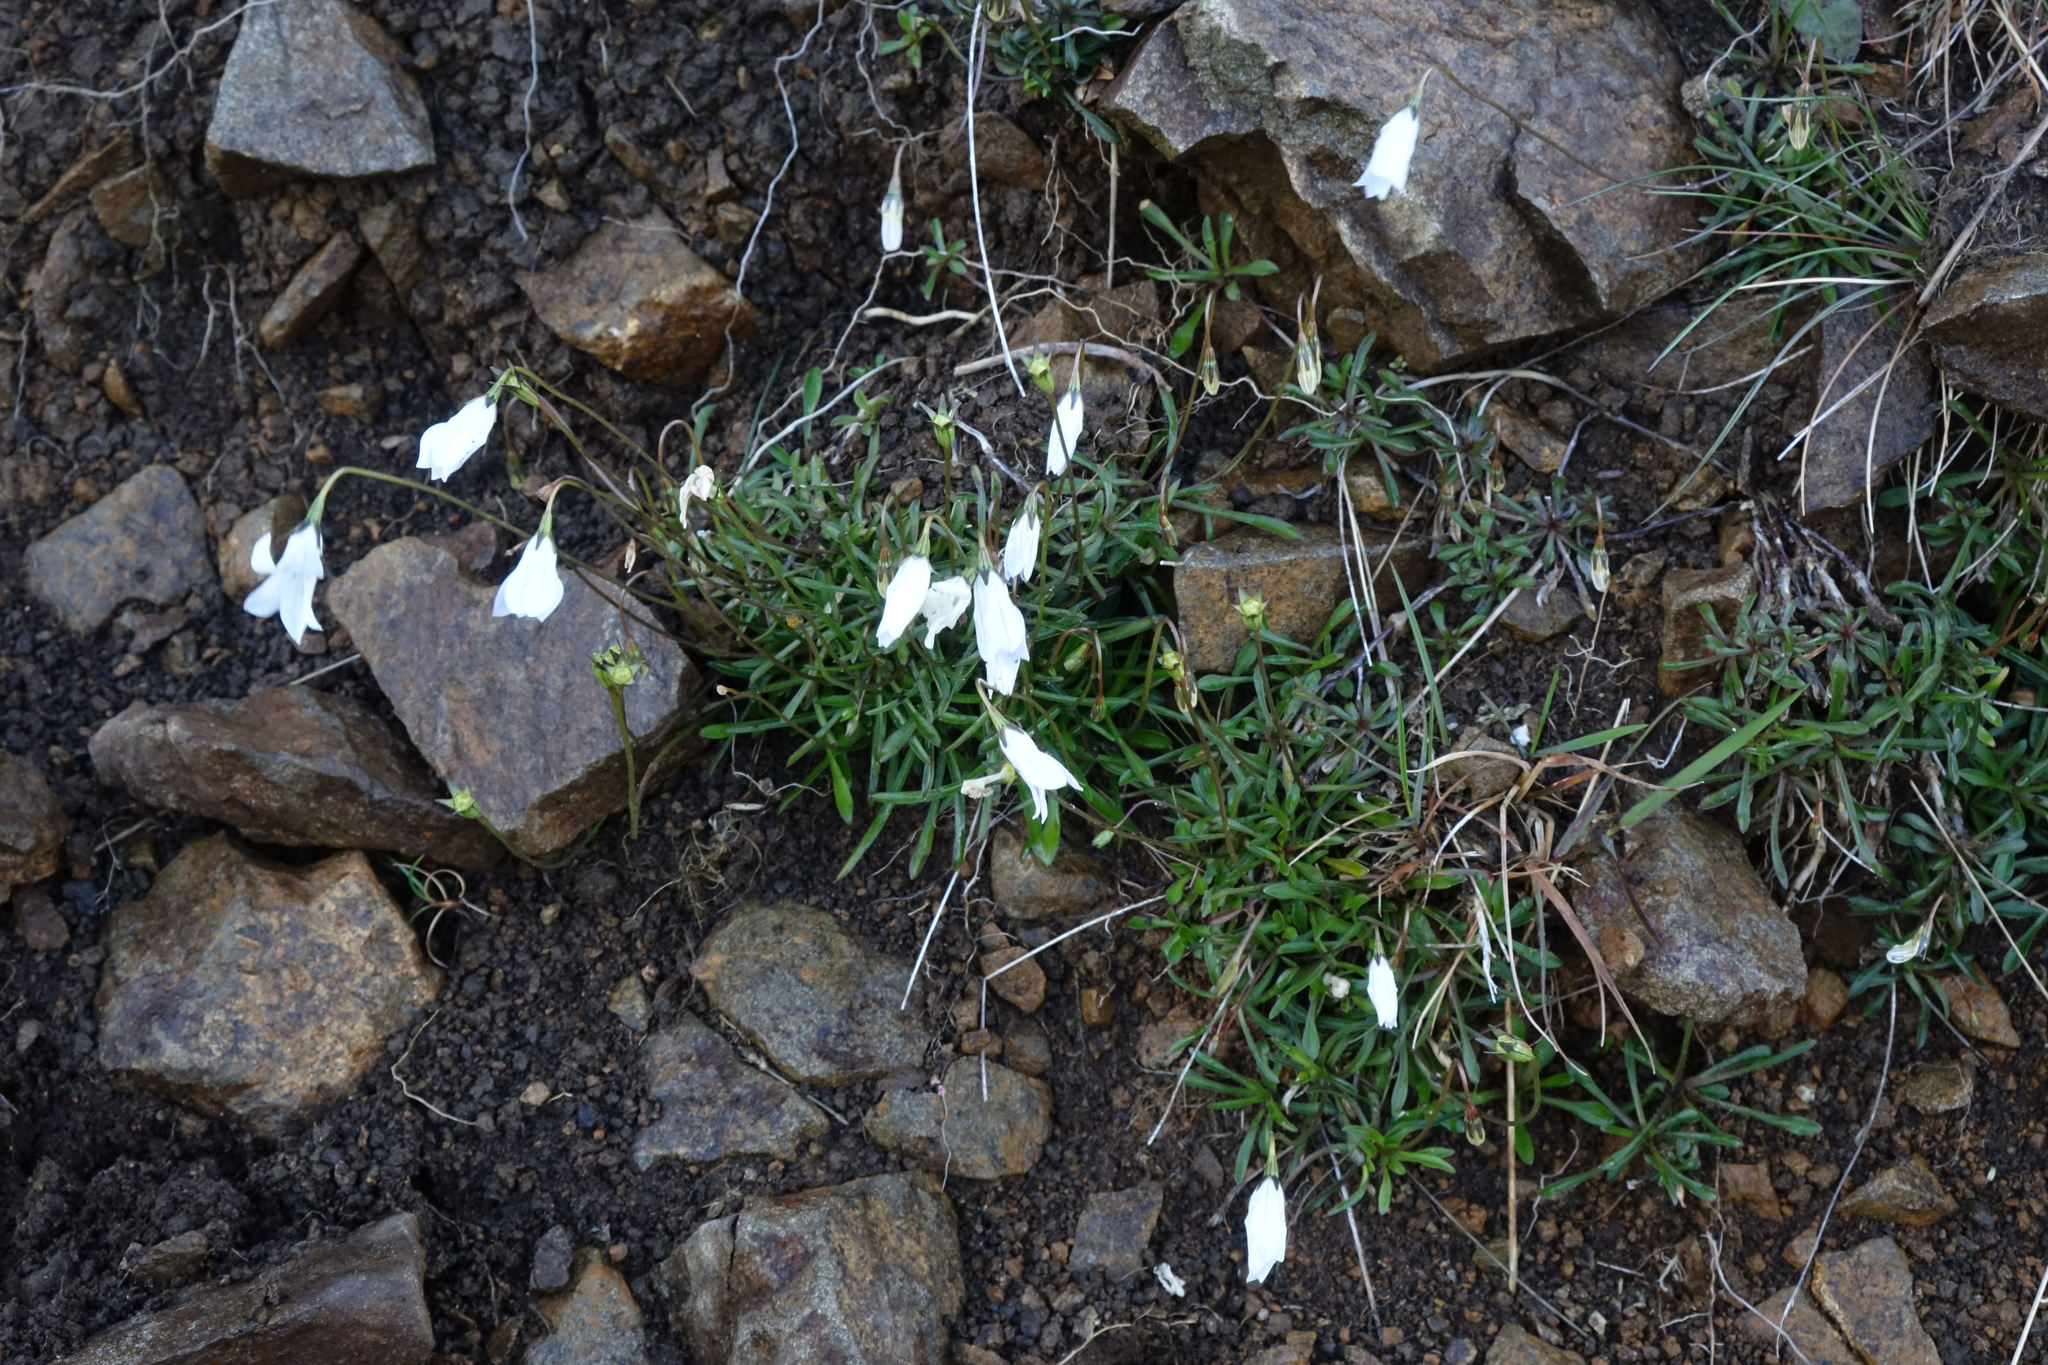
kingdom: Plantae
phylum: Tracheophyta
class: Magnoliopsida
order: Asterales
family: Campanulaceae
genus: Wahlenbergia
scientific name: Wahlenbergia albomarginata
